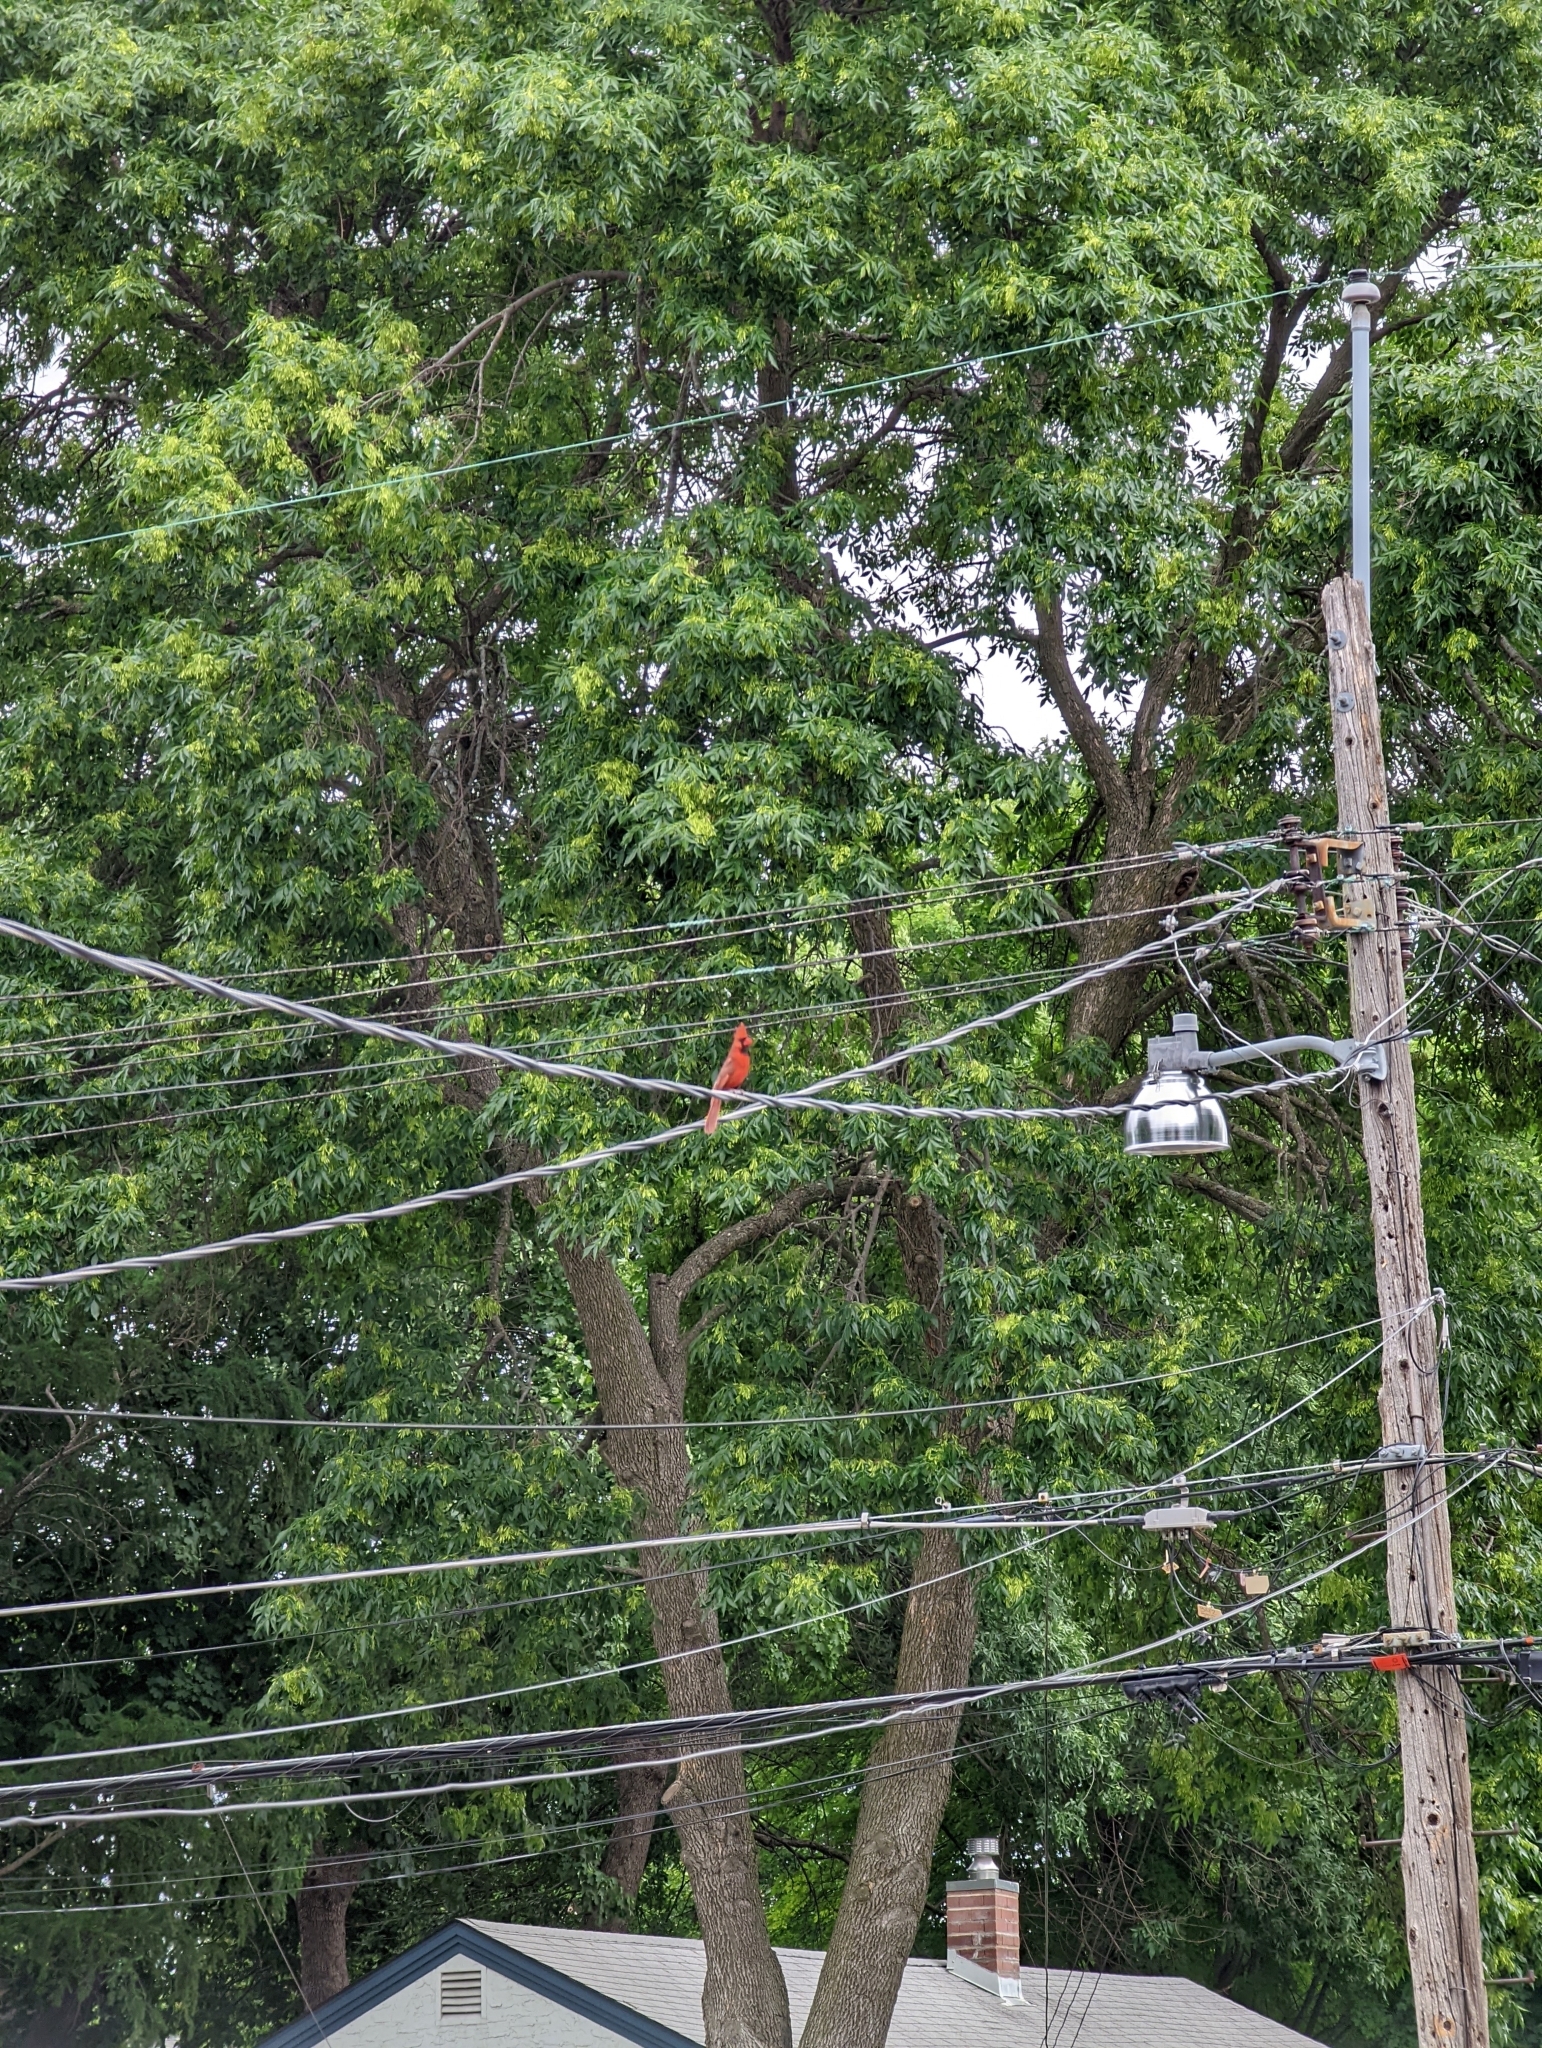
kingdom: Animalia
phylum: Chordata
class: Aves
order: Passeriformes
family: Cardinalidae
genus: Cardinalis
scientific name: Cardinalis cardinalis
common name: Northern cardinal
